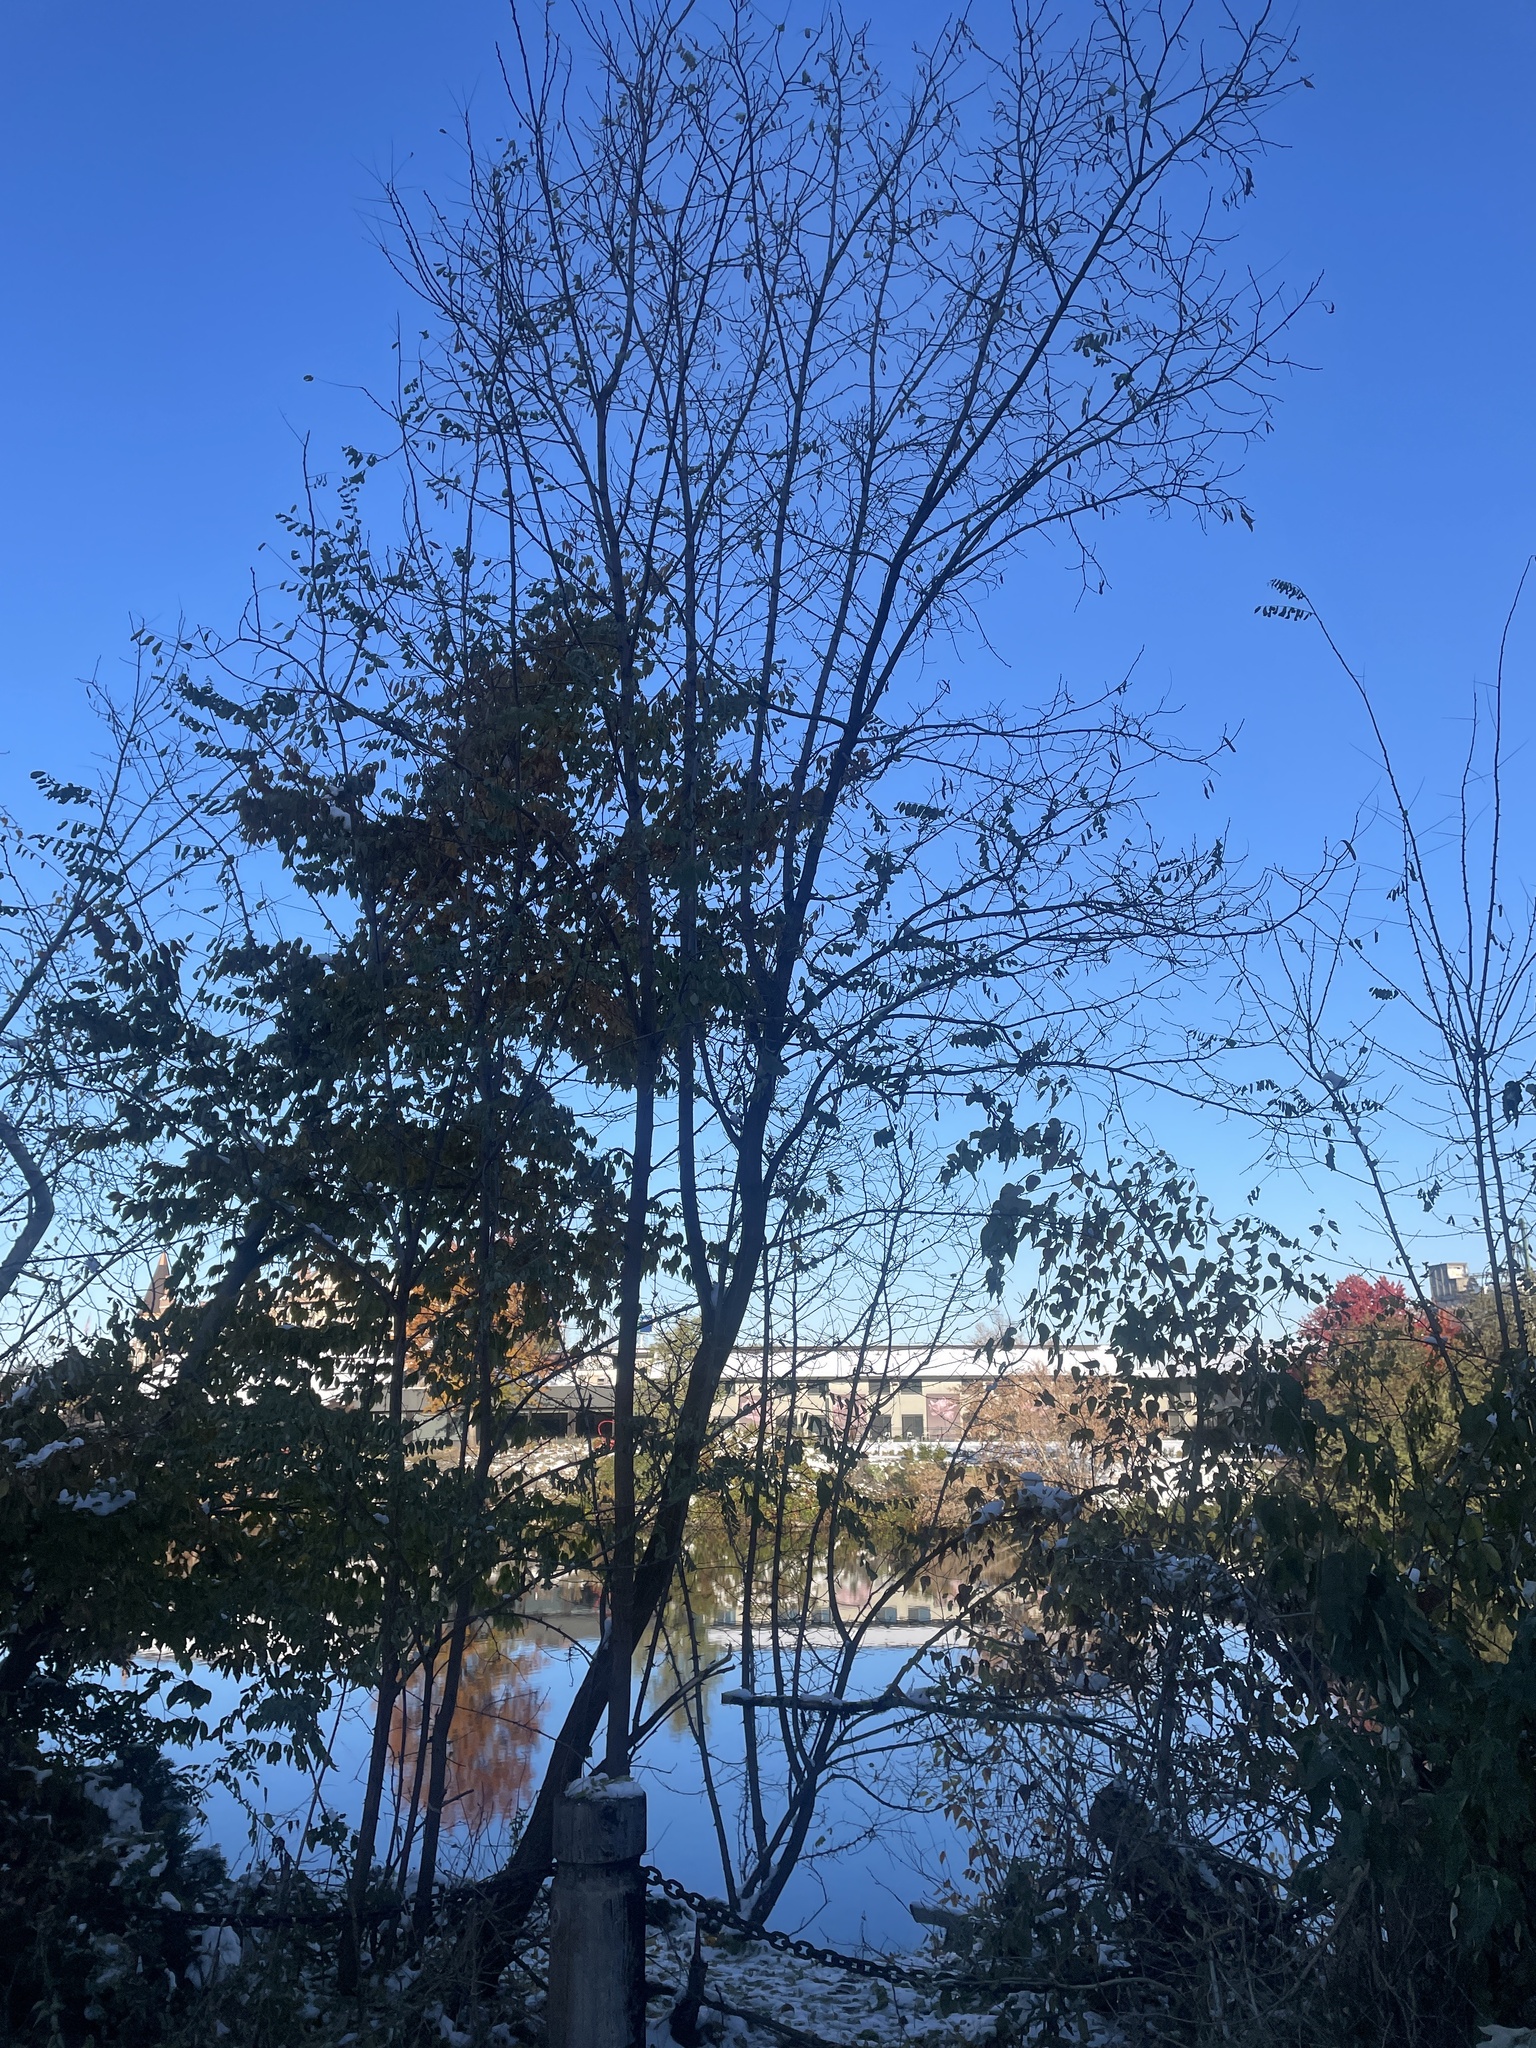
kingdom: Plantae
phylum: Tracheophyta
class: Magnoliopsida
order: Fabales
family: Fabaceae
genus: Robinia
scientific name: Robinia pseudoacacia
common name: Black locust
